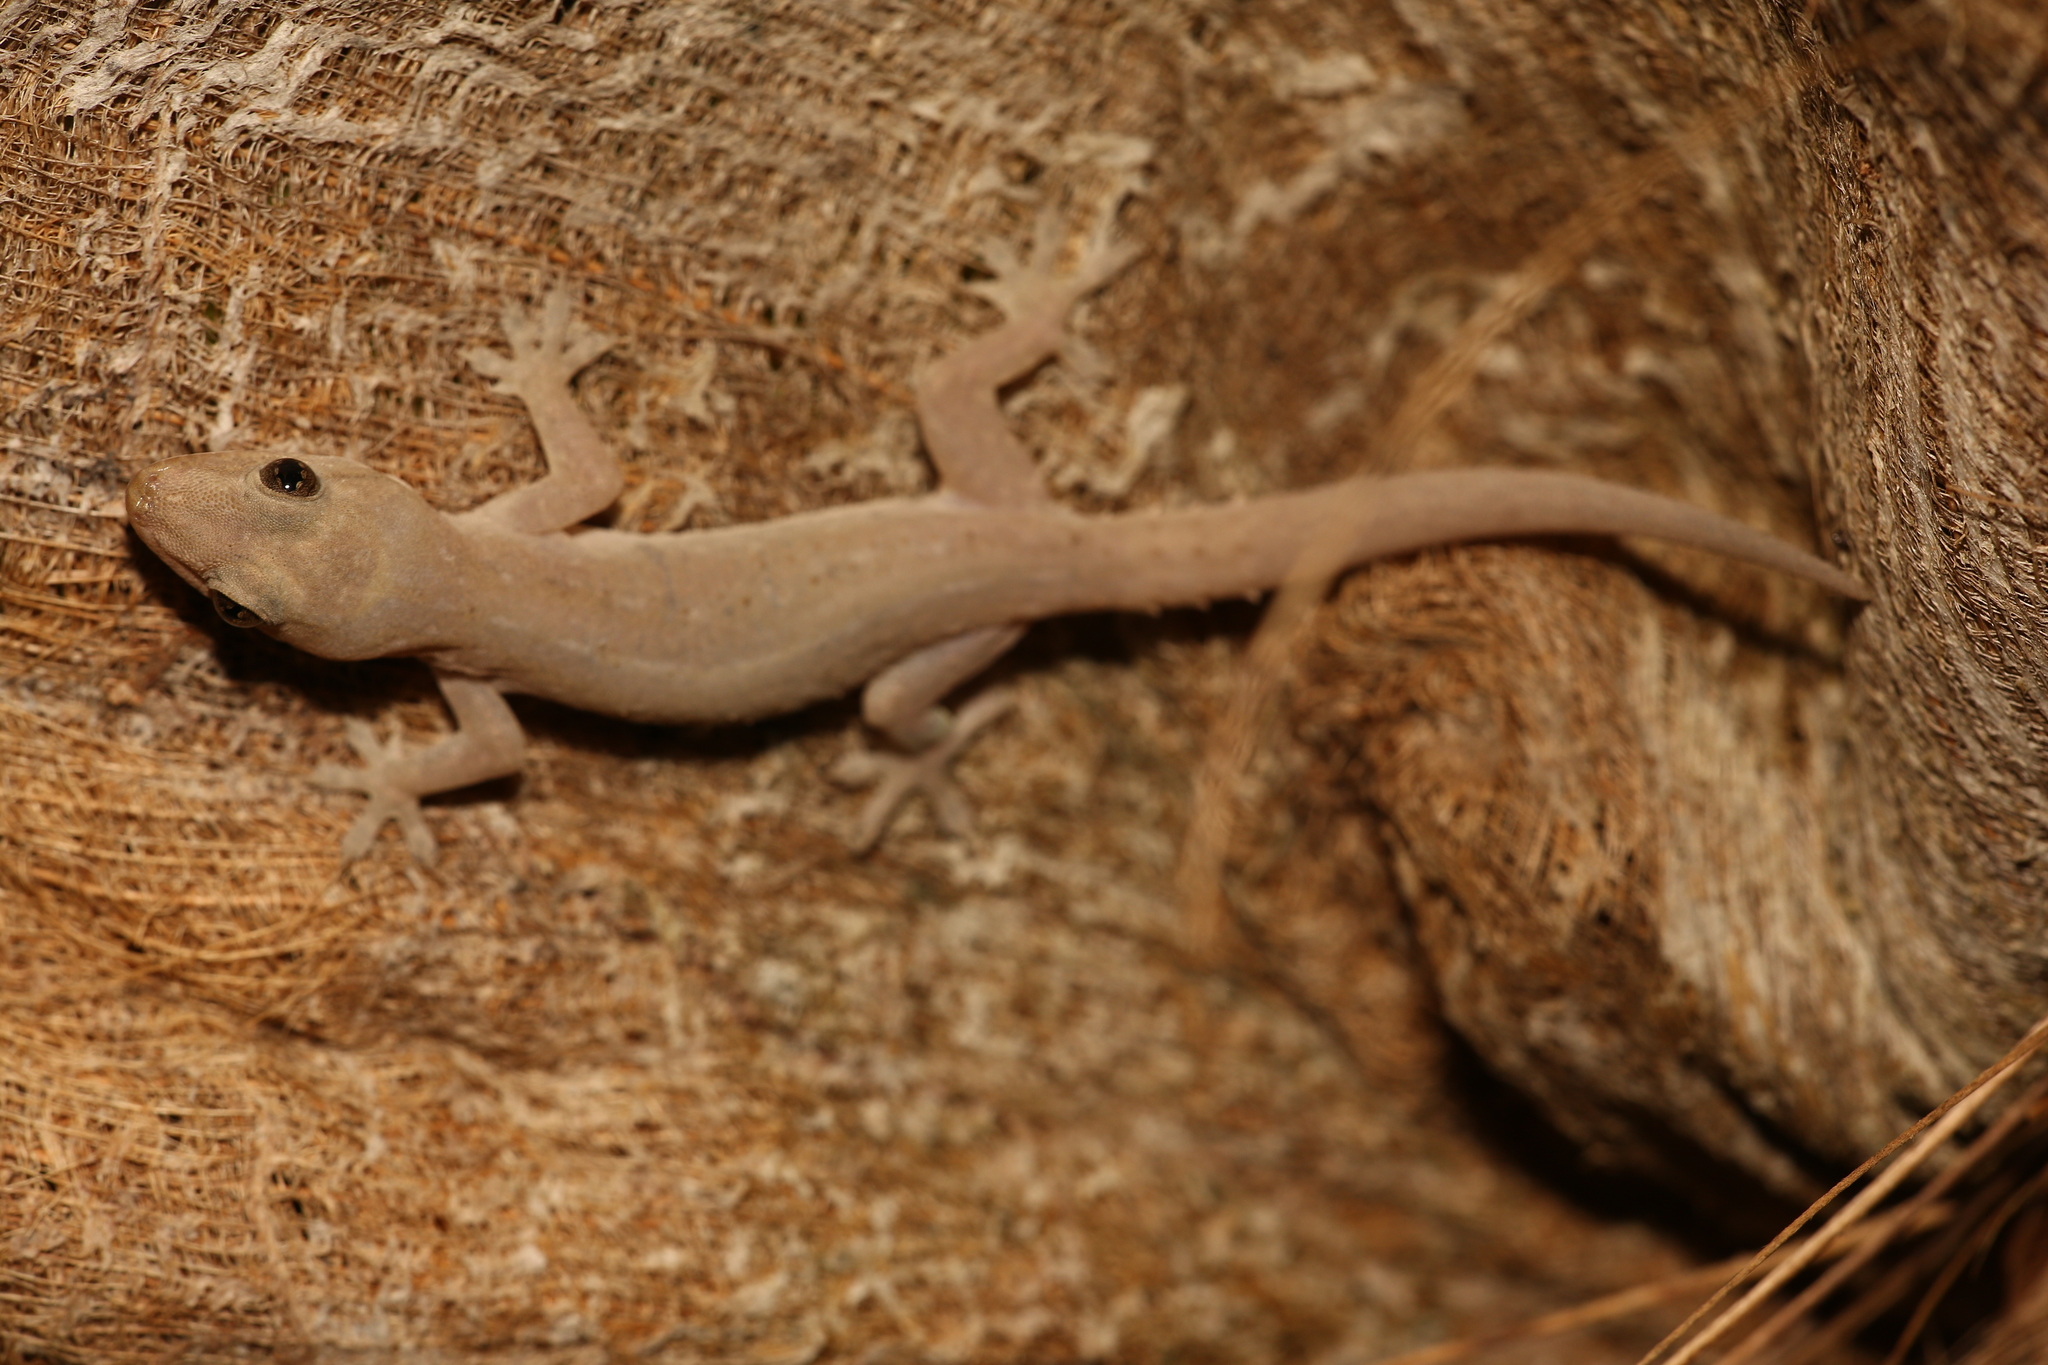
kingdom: Animalia
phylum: Chordata
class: Squamata
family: Gekkonidae
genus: Hemidactylus
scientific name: Hemidactylus frenatus
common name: Common house gecko
